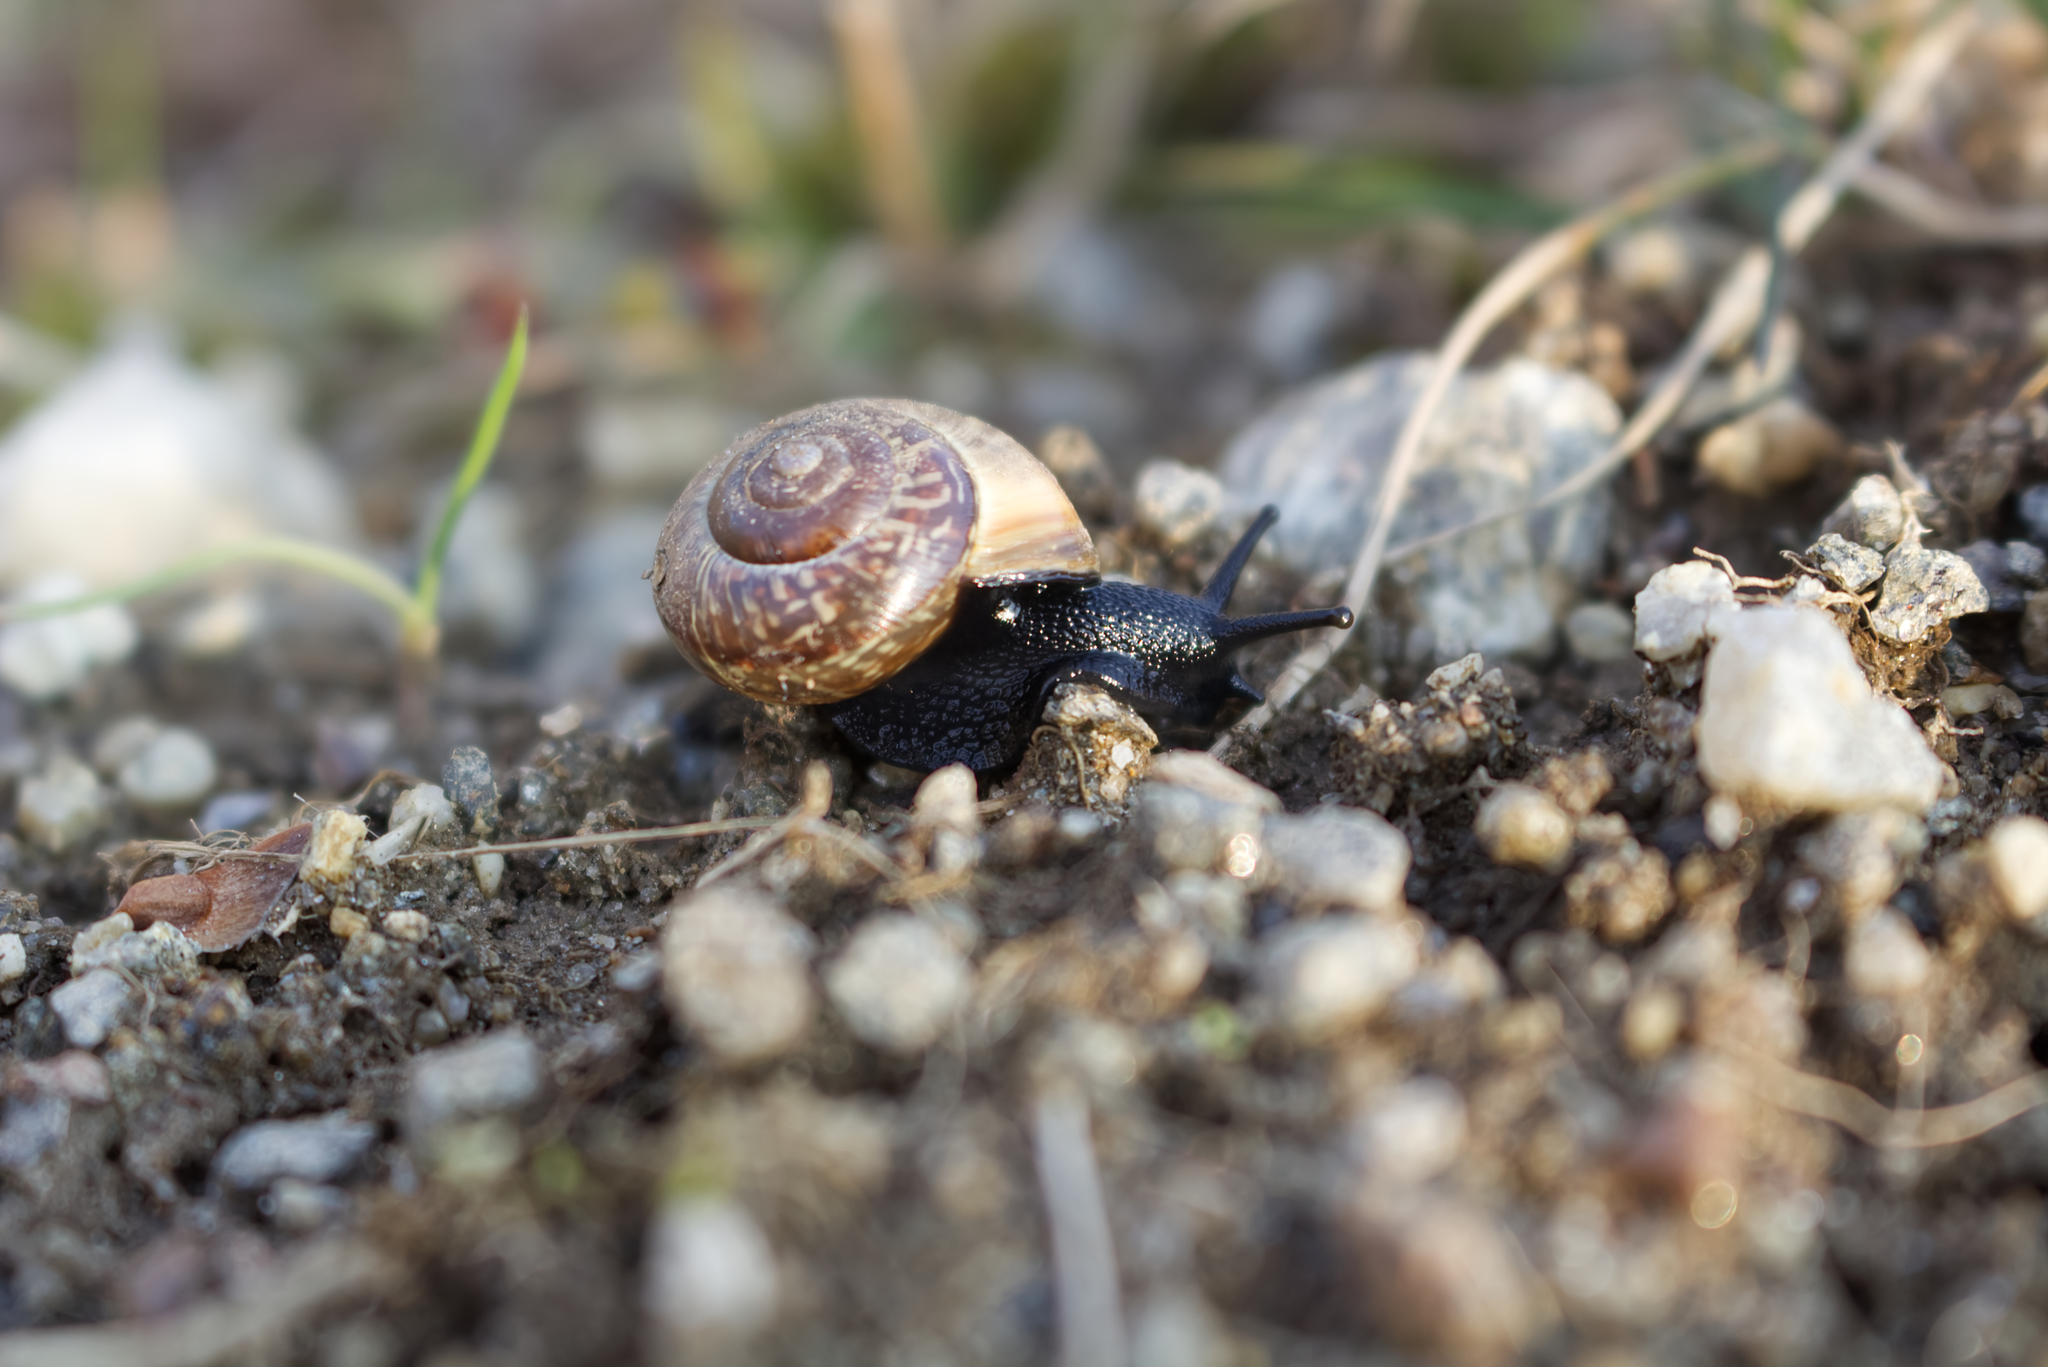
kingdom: Animalia
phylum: Mollusca
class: Gastropoda
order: Stylommatophora
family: Helicidae
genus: Arianta
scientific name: Arianta arbustorum
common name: Copse snail
